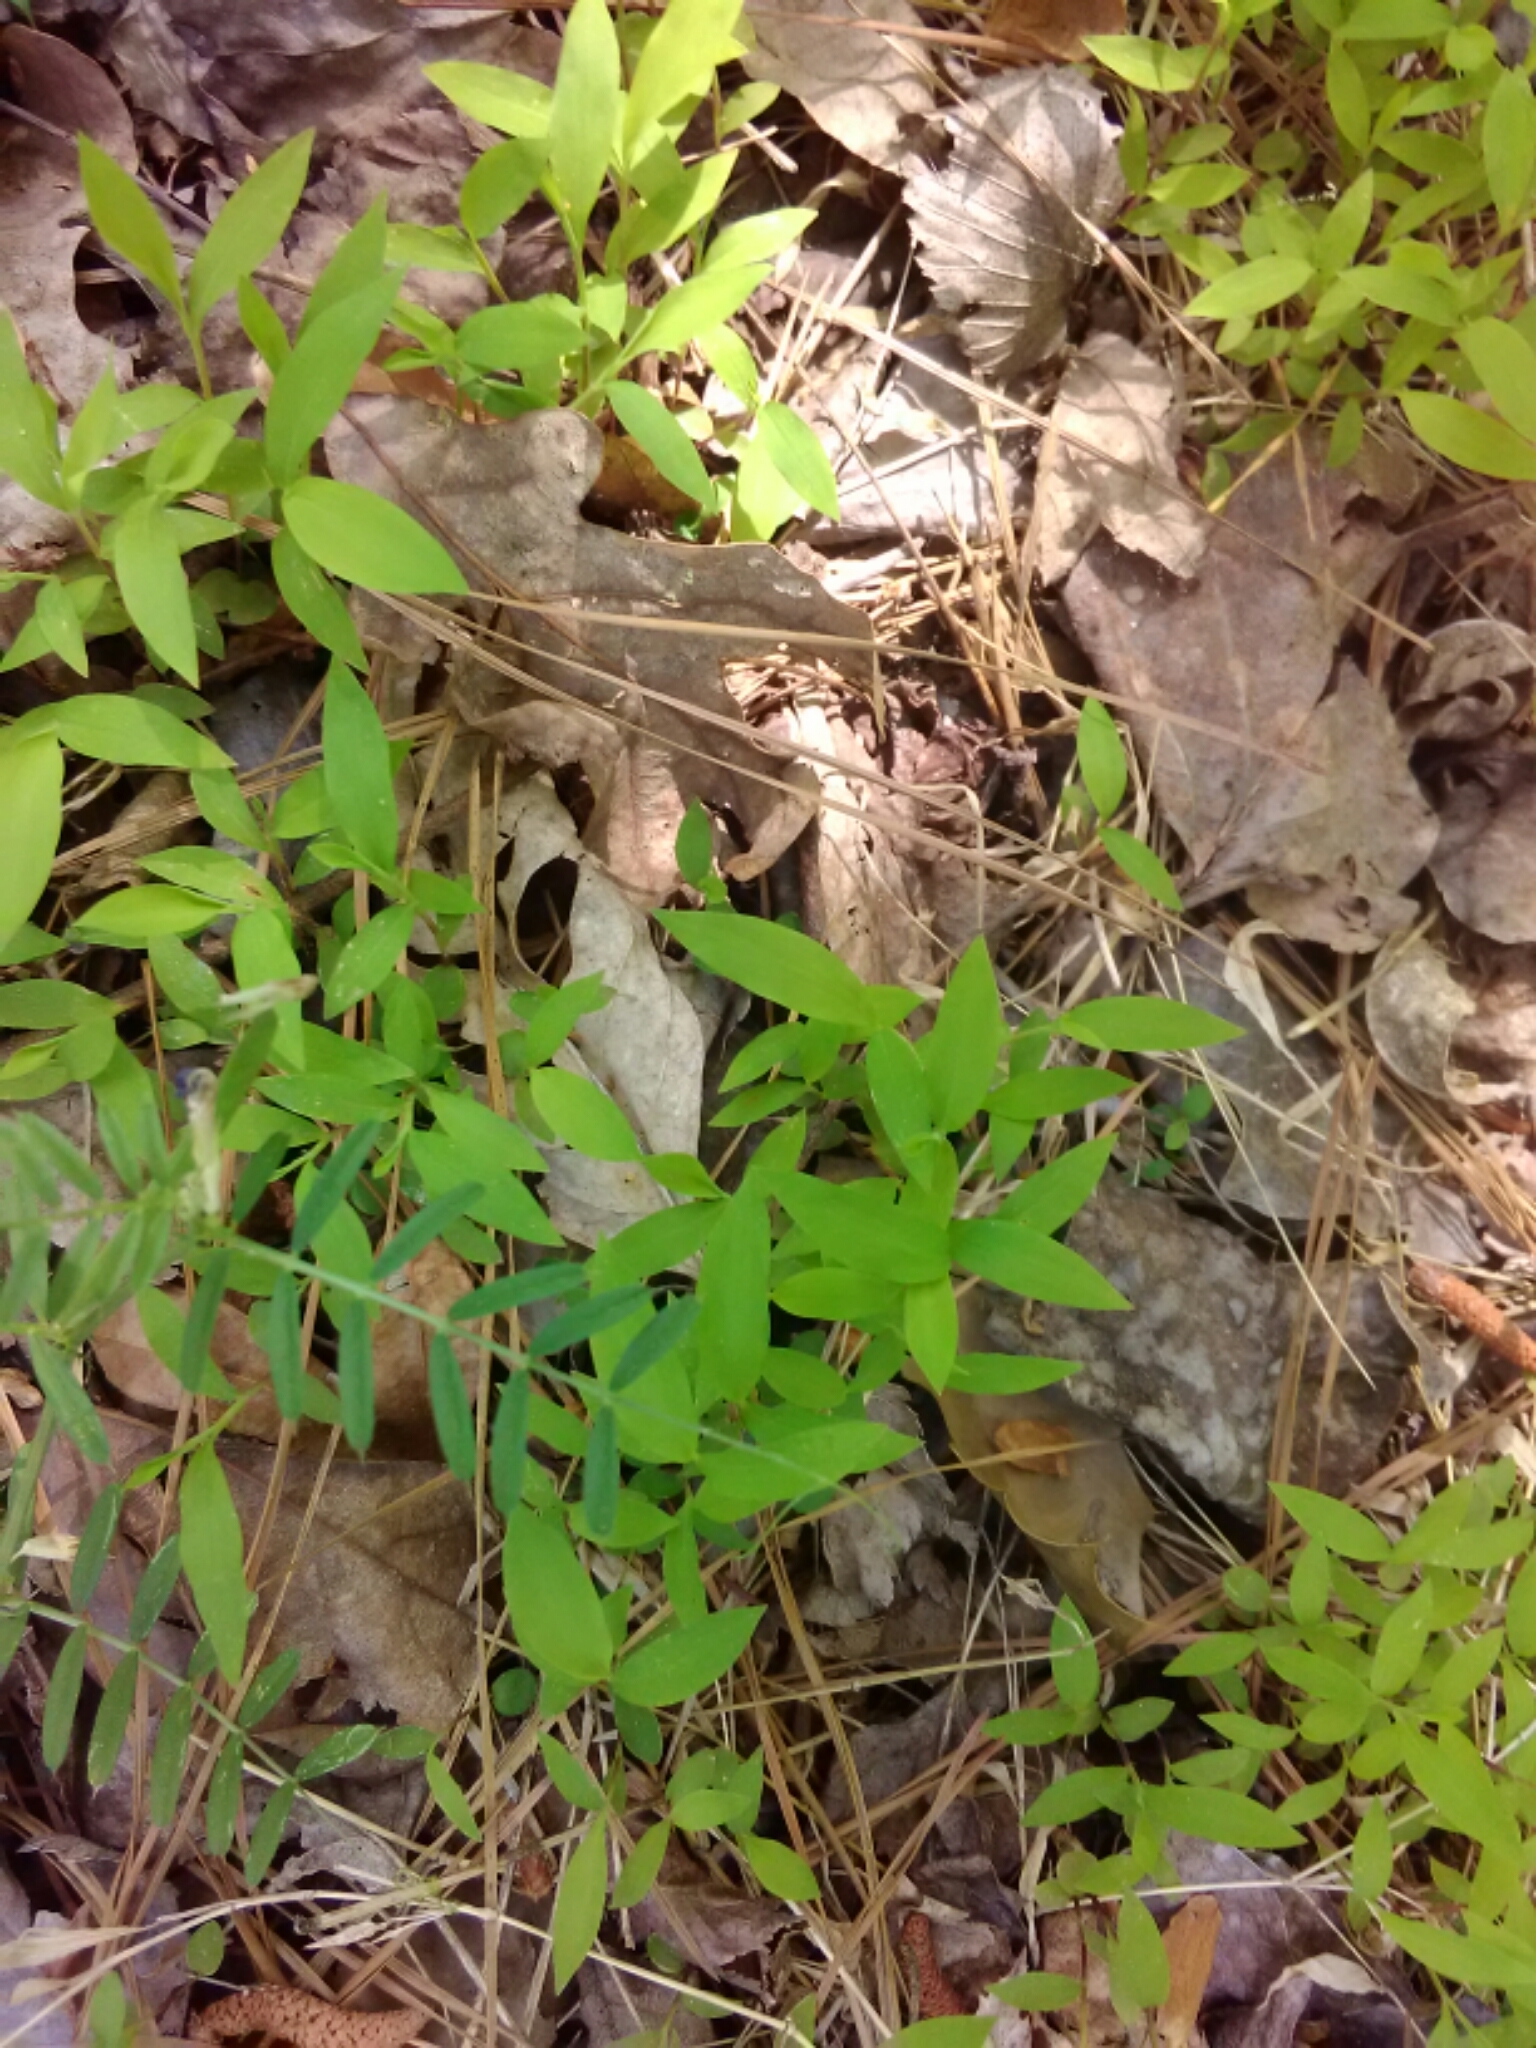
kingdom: Plantae
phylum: Tracheophyta
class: Liliopsida
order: Poales
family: Poaceae
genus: Microstegium
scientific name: Microstegium vimineum
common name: Japanese stiltgrass
